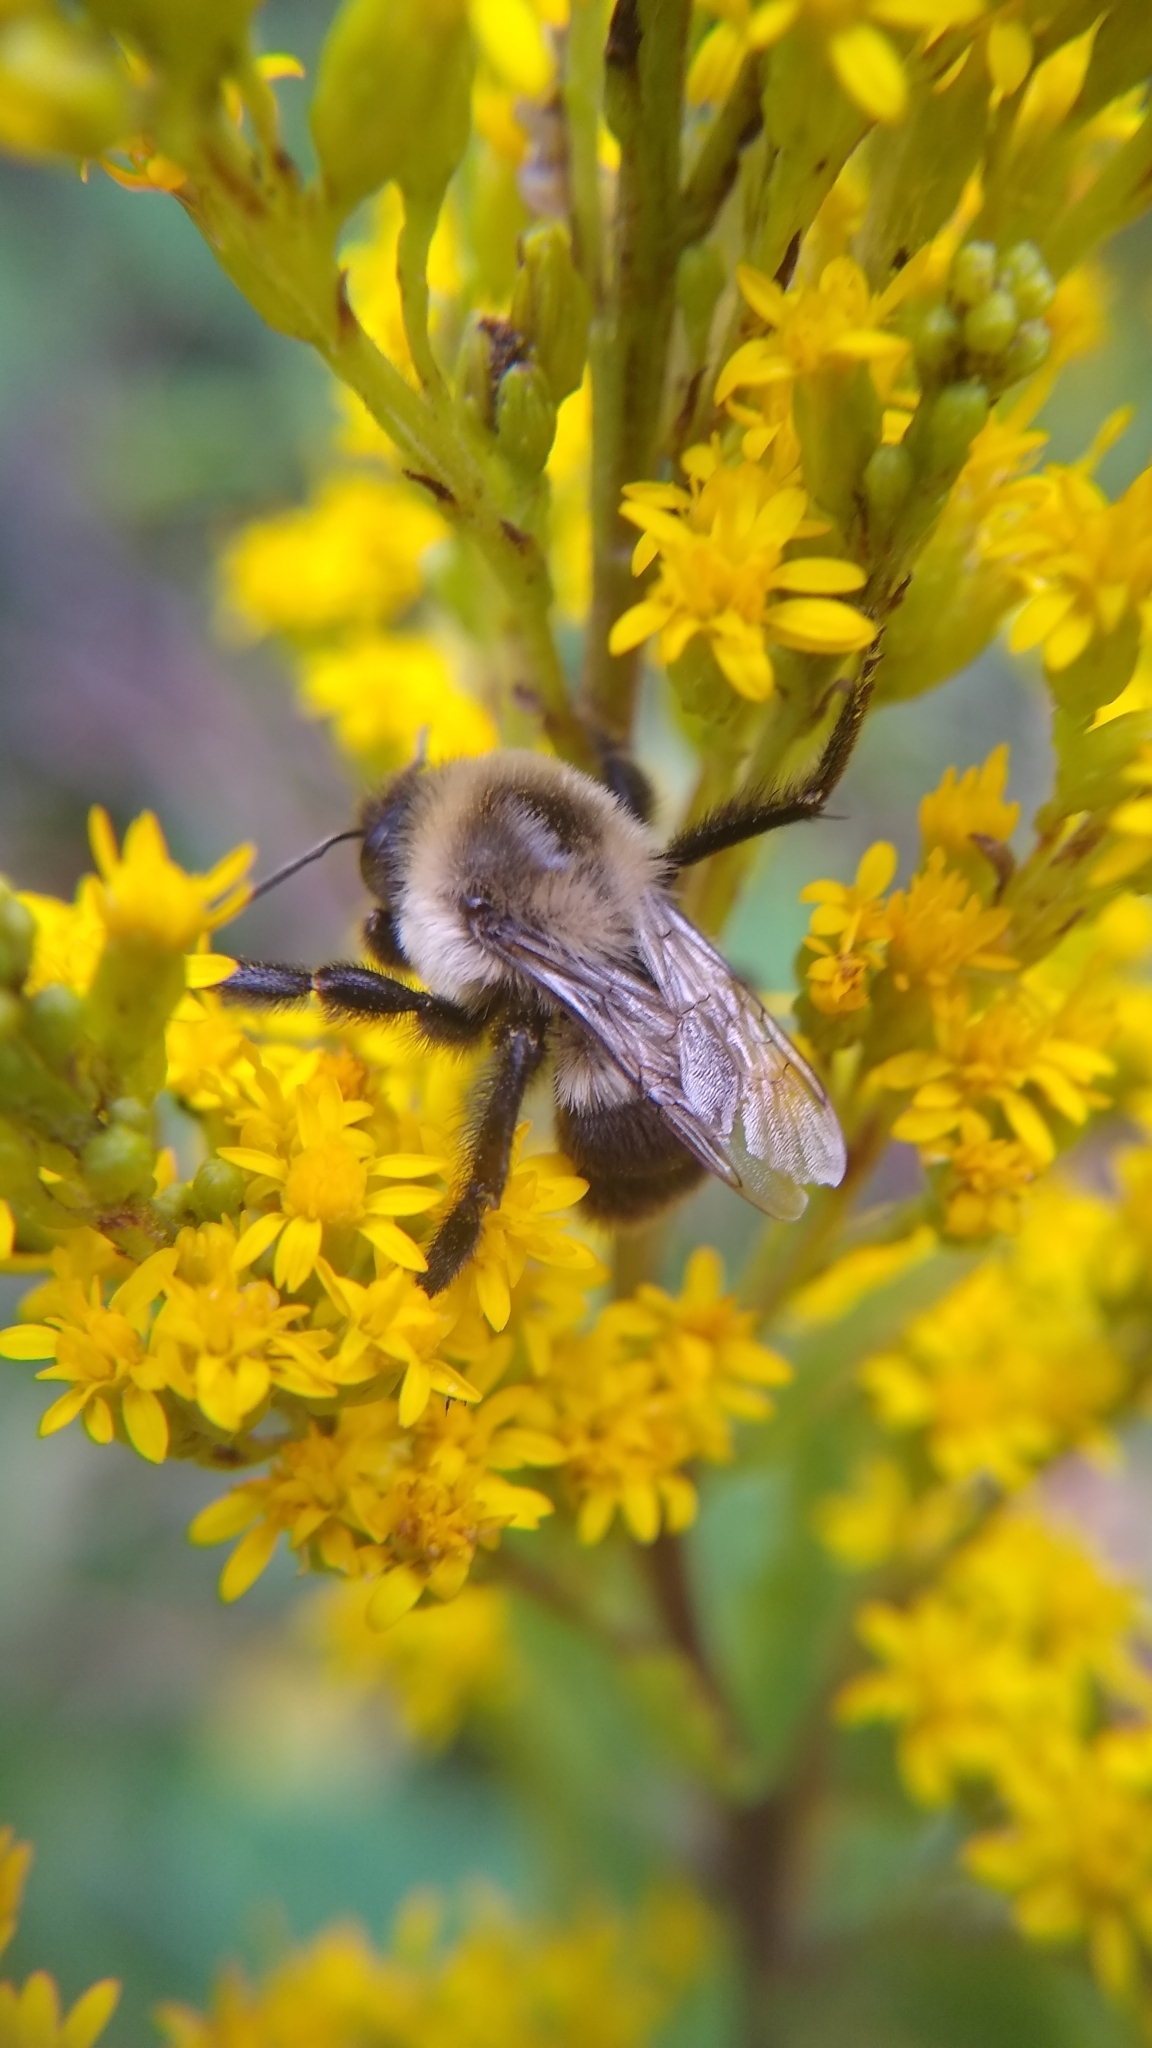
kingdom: Animalia
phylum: Arthropoda
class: Insecta
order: Hymenoptera
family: Apidae
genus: Bombus
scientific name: Bombus impatiens
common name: Common eastern bumble bee
